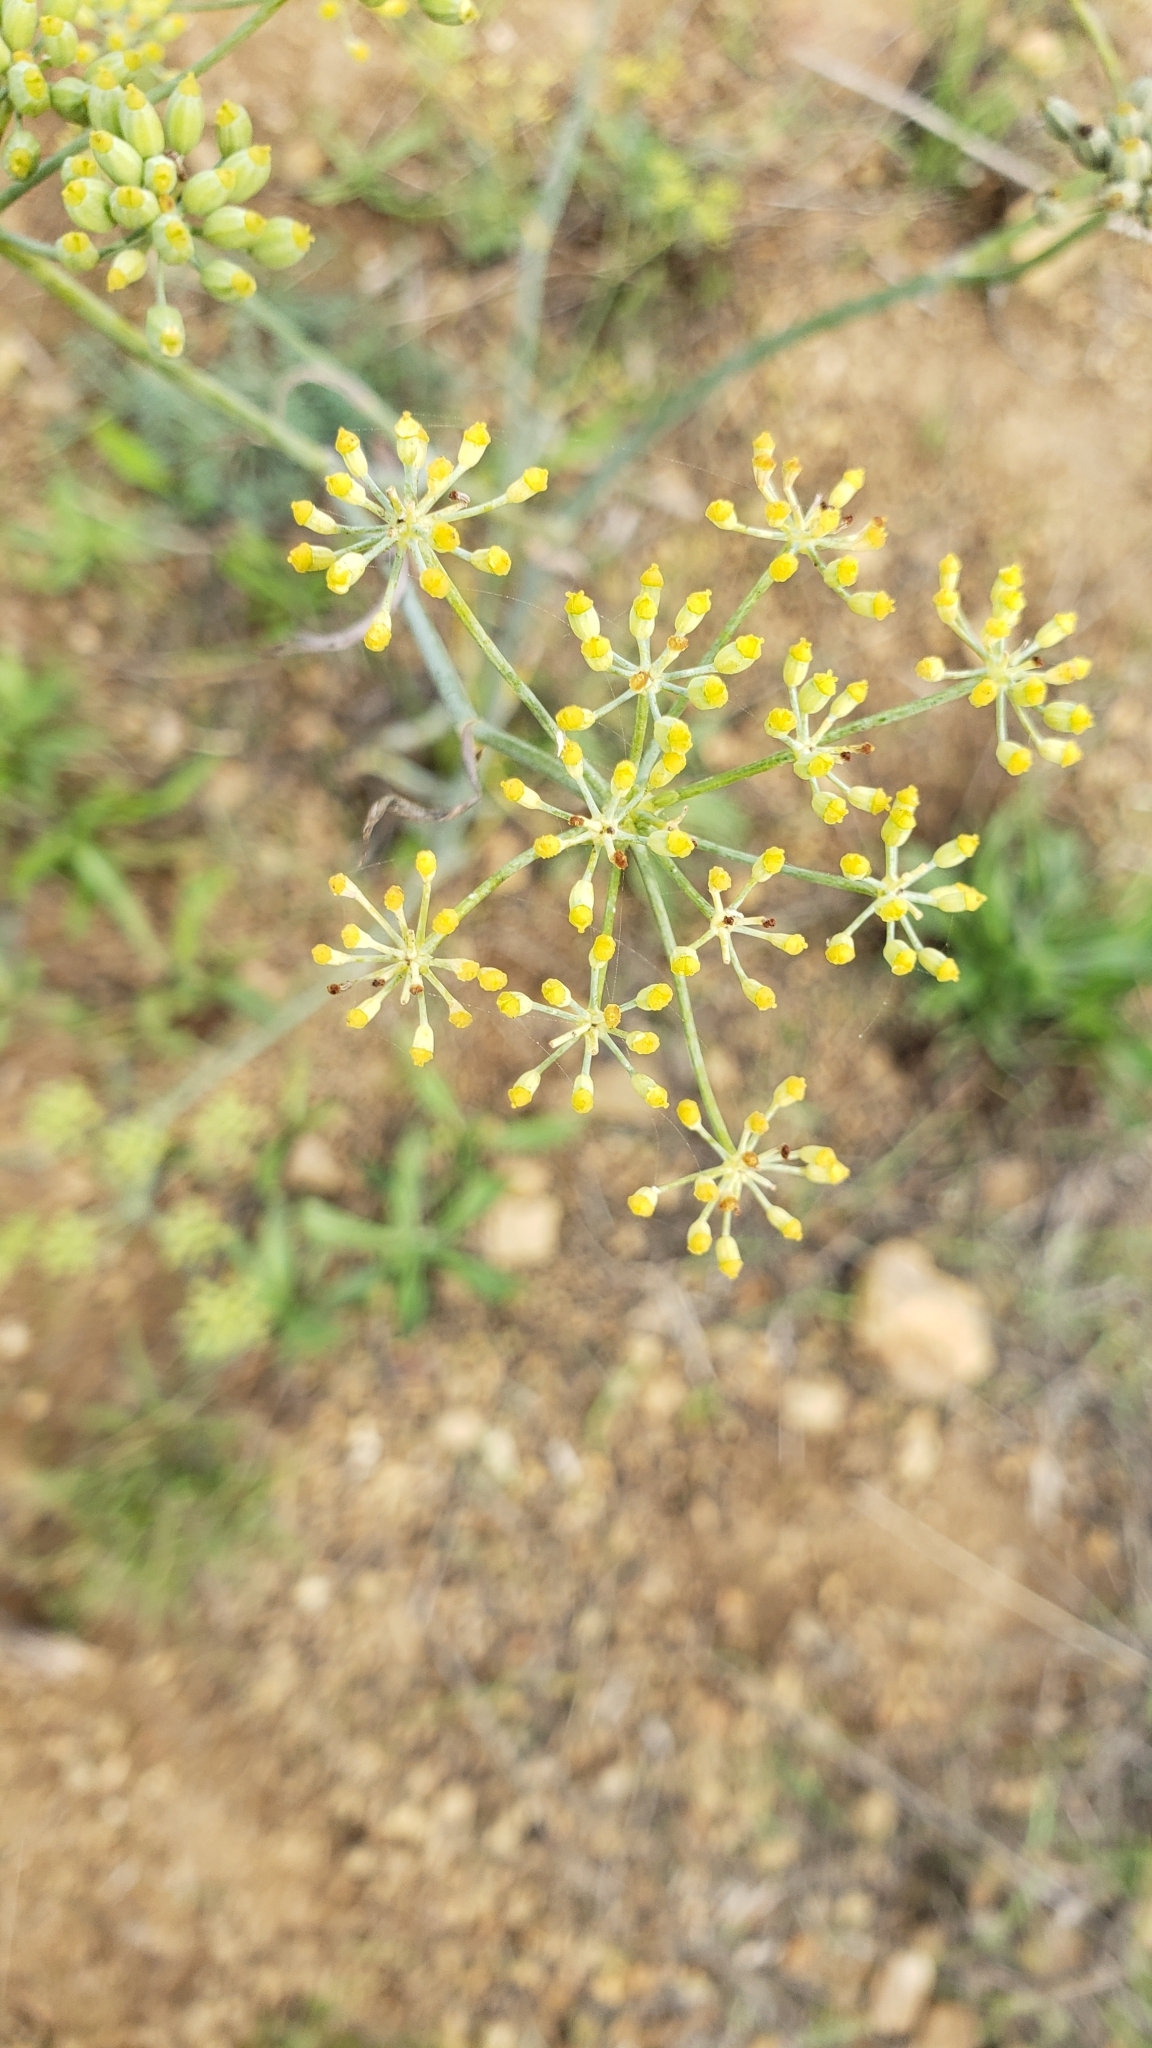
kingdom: Plantae
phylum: Tracheophyta
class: Magnoliopsida
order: Apiales
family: Apiaceae
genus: Foeniculum
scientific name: Foeniculum vulgare
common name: Fennel
